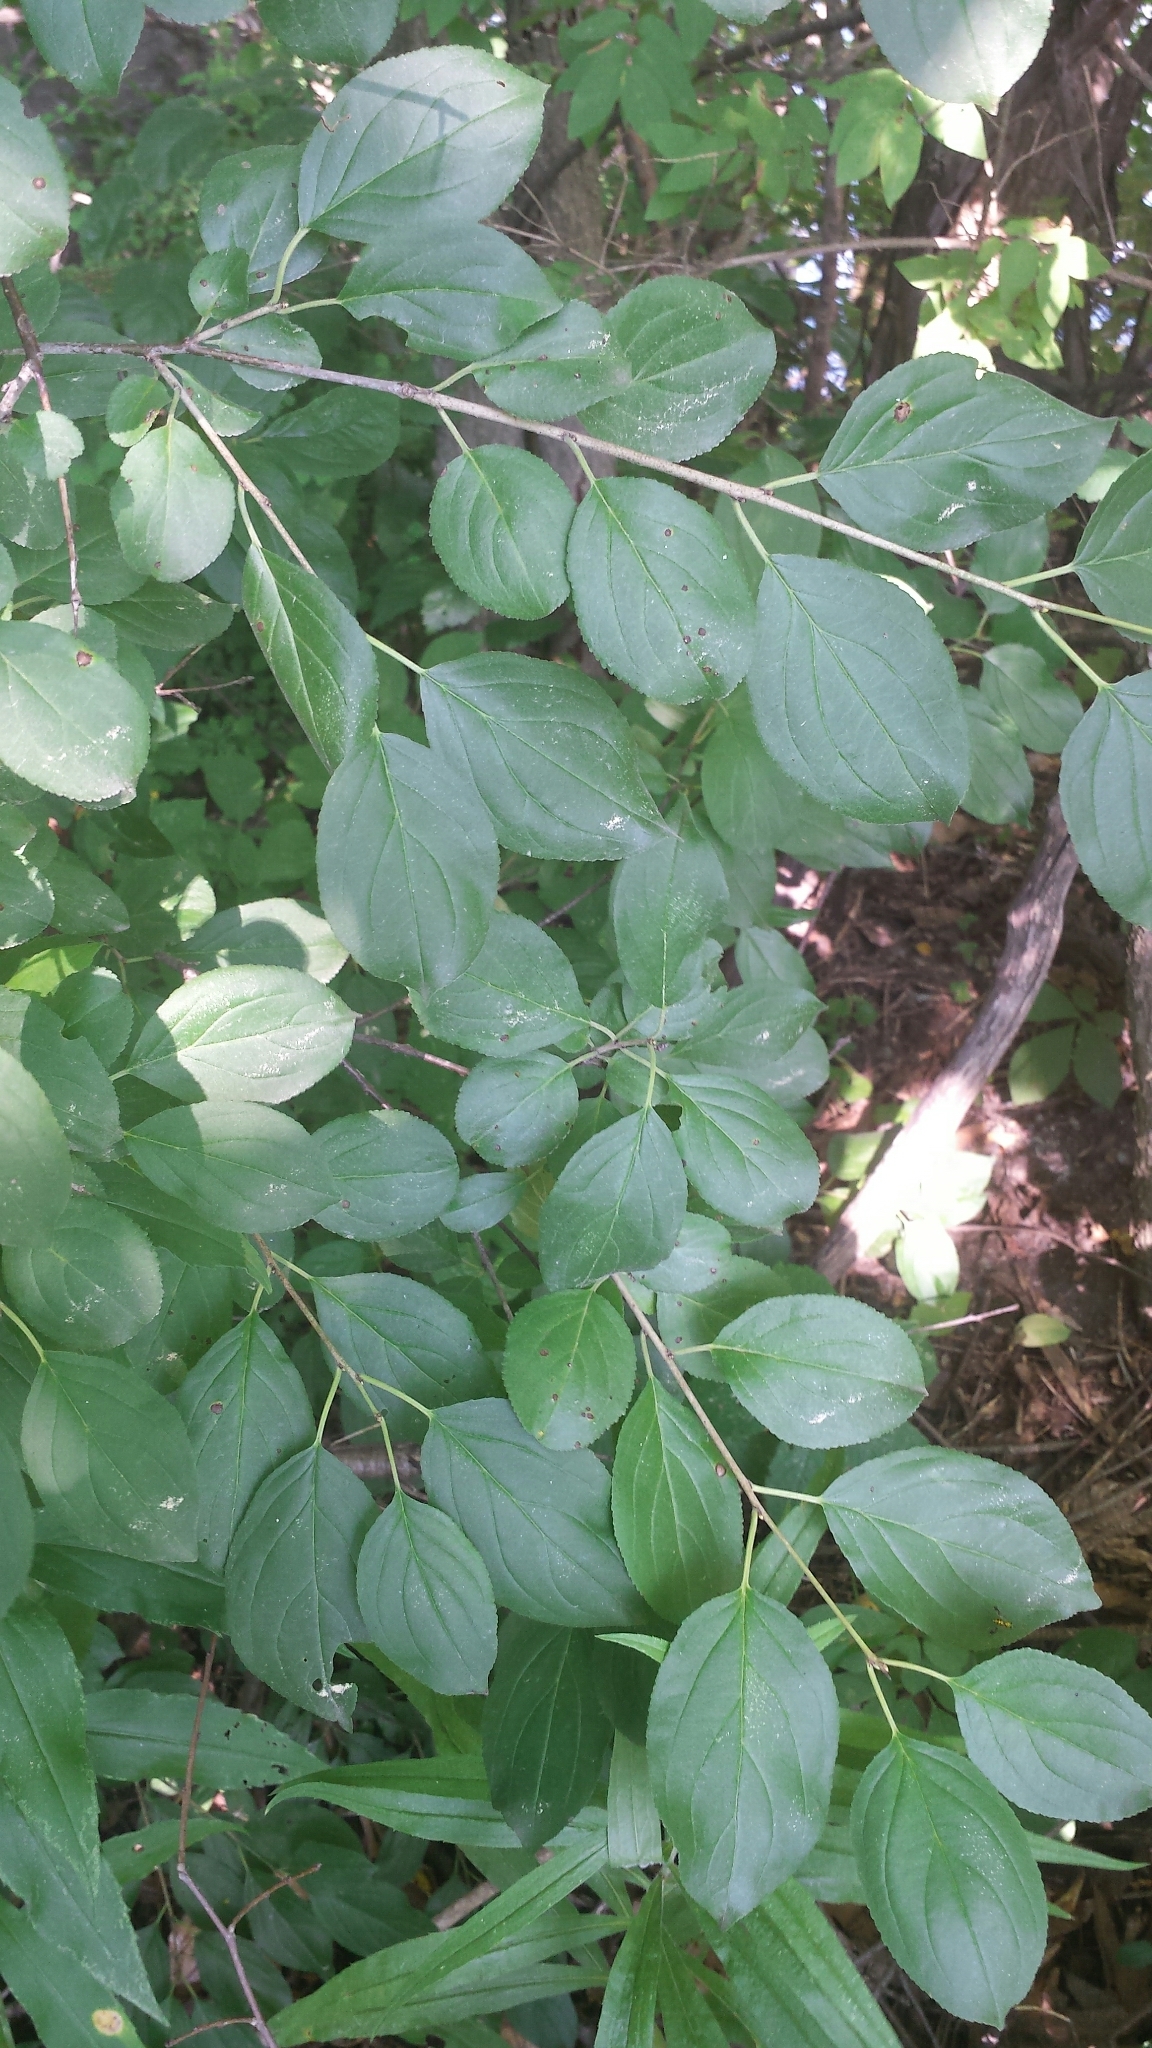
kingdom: Plantae
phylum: Tracheophyta
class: Magnoliopsida
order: Rosales
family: Rhamnaceae
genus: Rhamnus
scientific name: Rhamnus cathartica
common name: Common buckthorn
